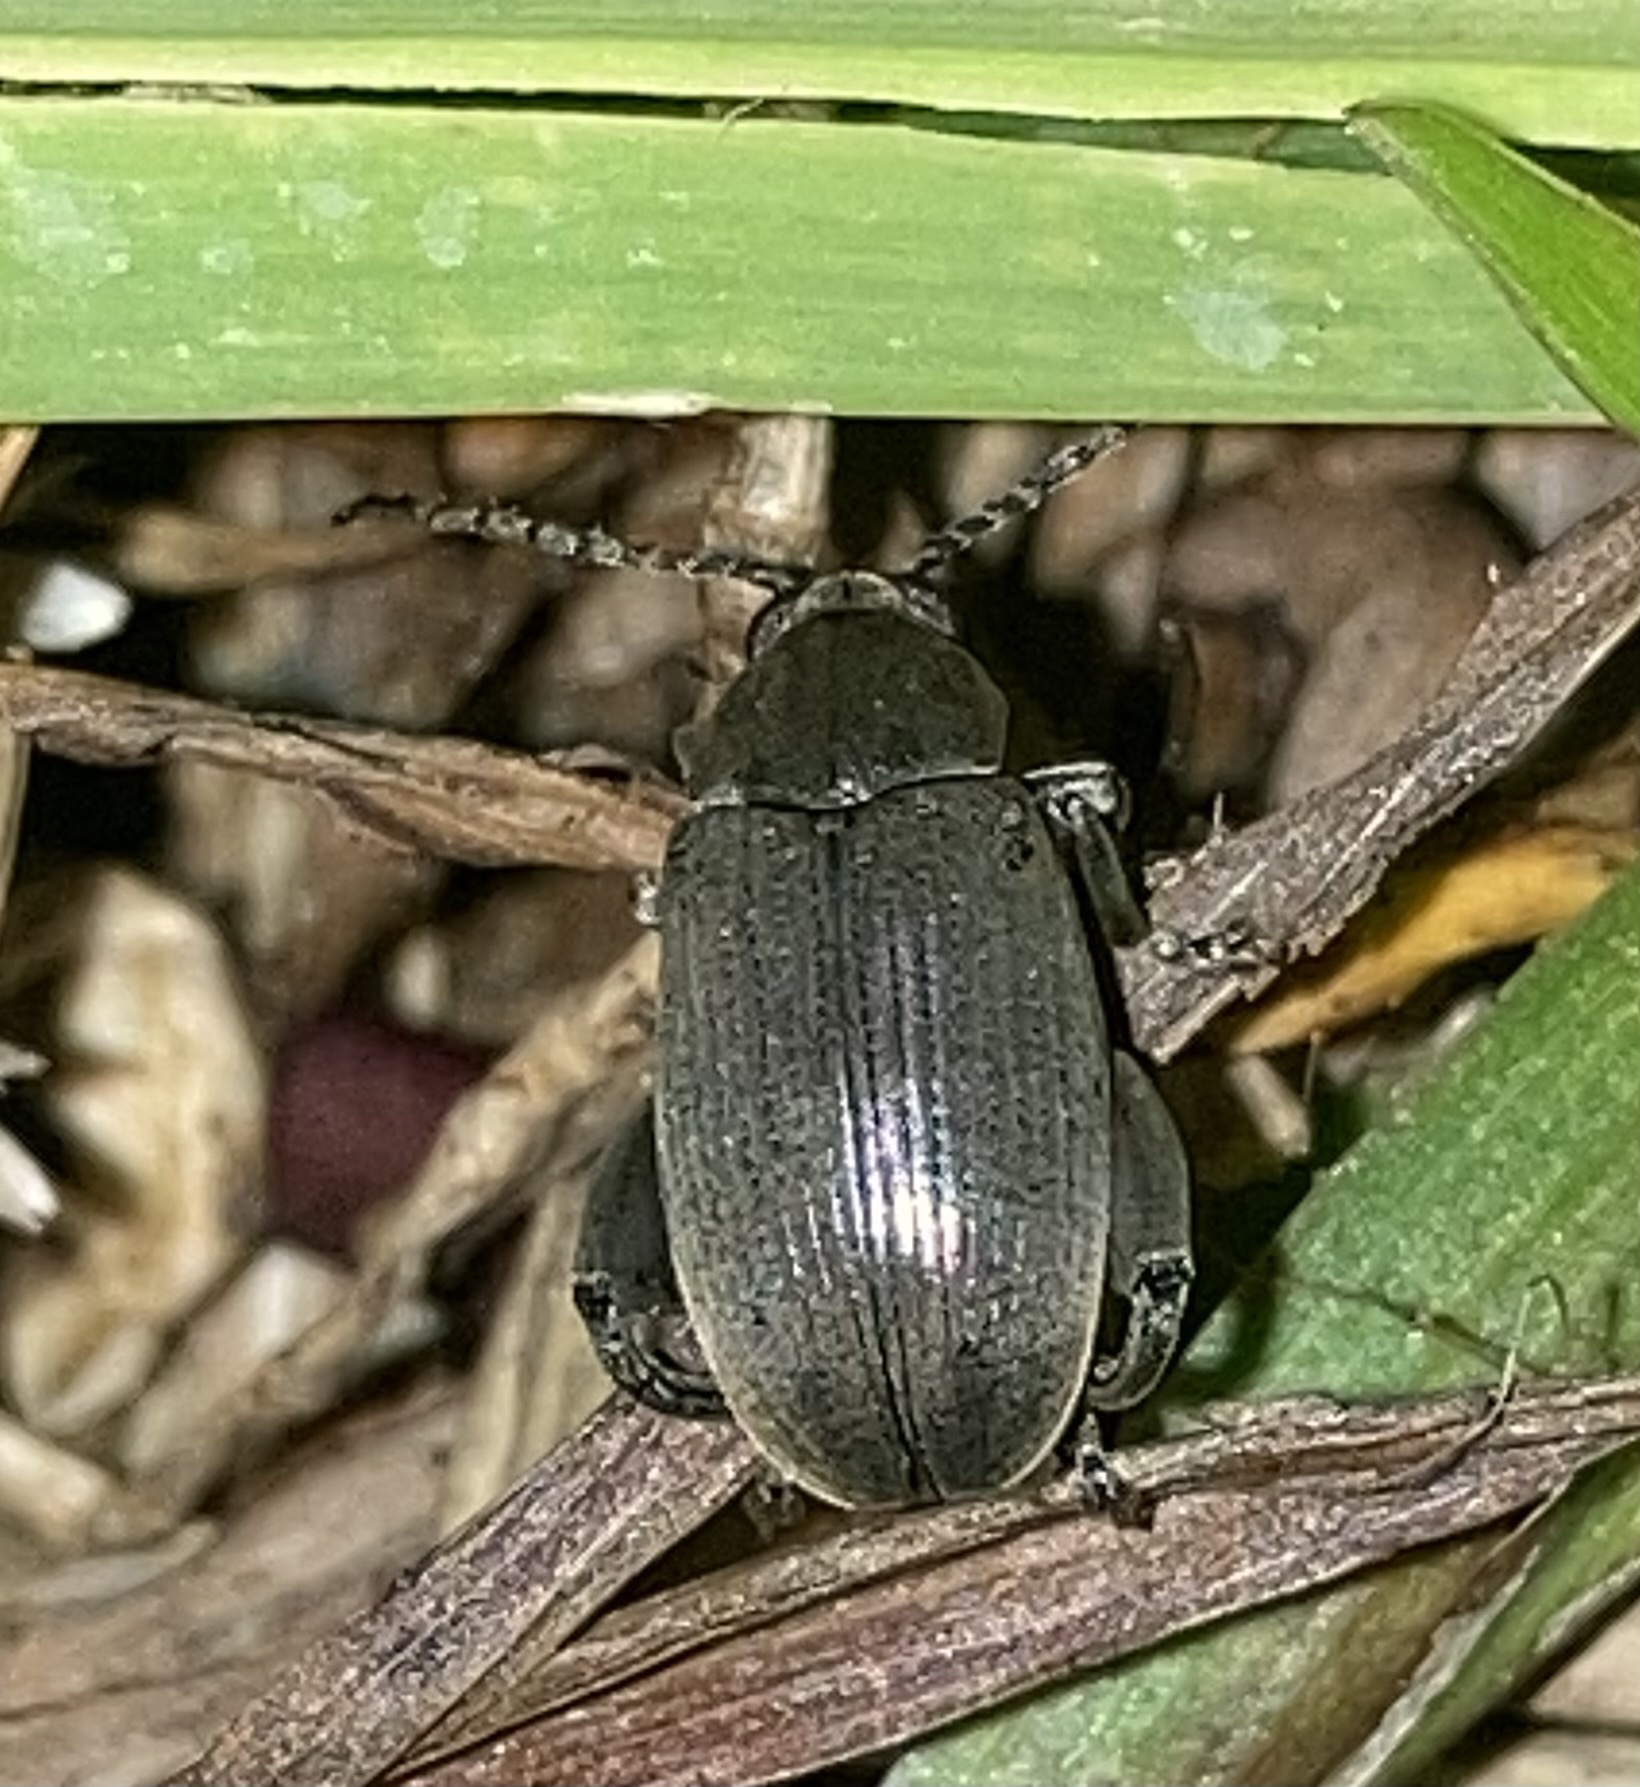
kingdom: Animalia
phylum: Arthropoda
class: Insecta
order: Coleoptera
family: Chrysomelidae
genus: Pachymerus
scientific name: Pachymerus
